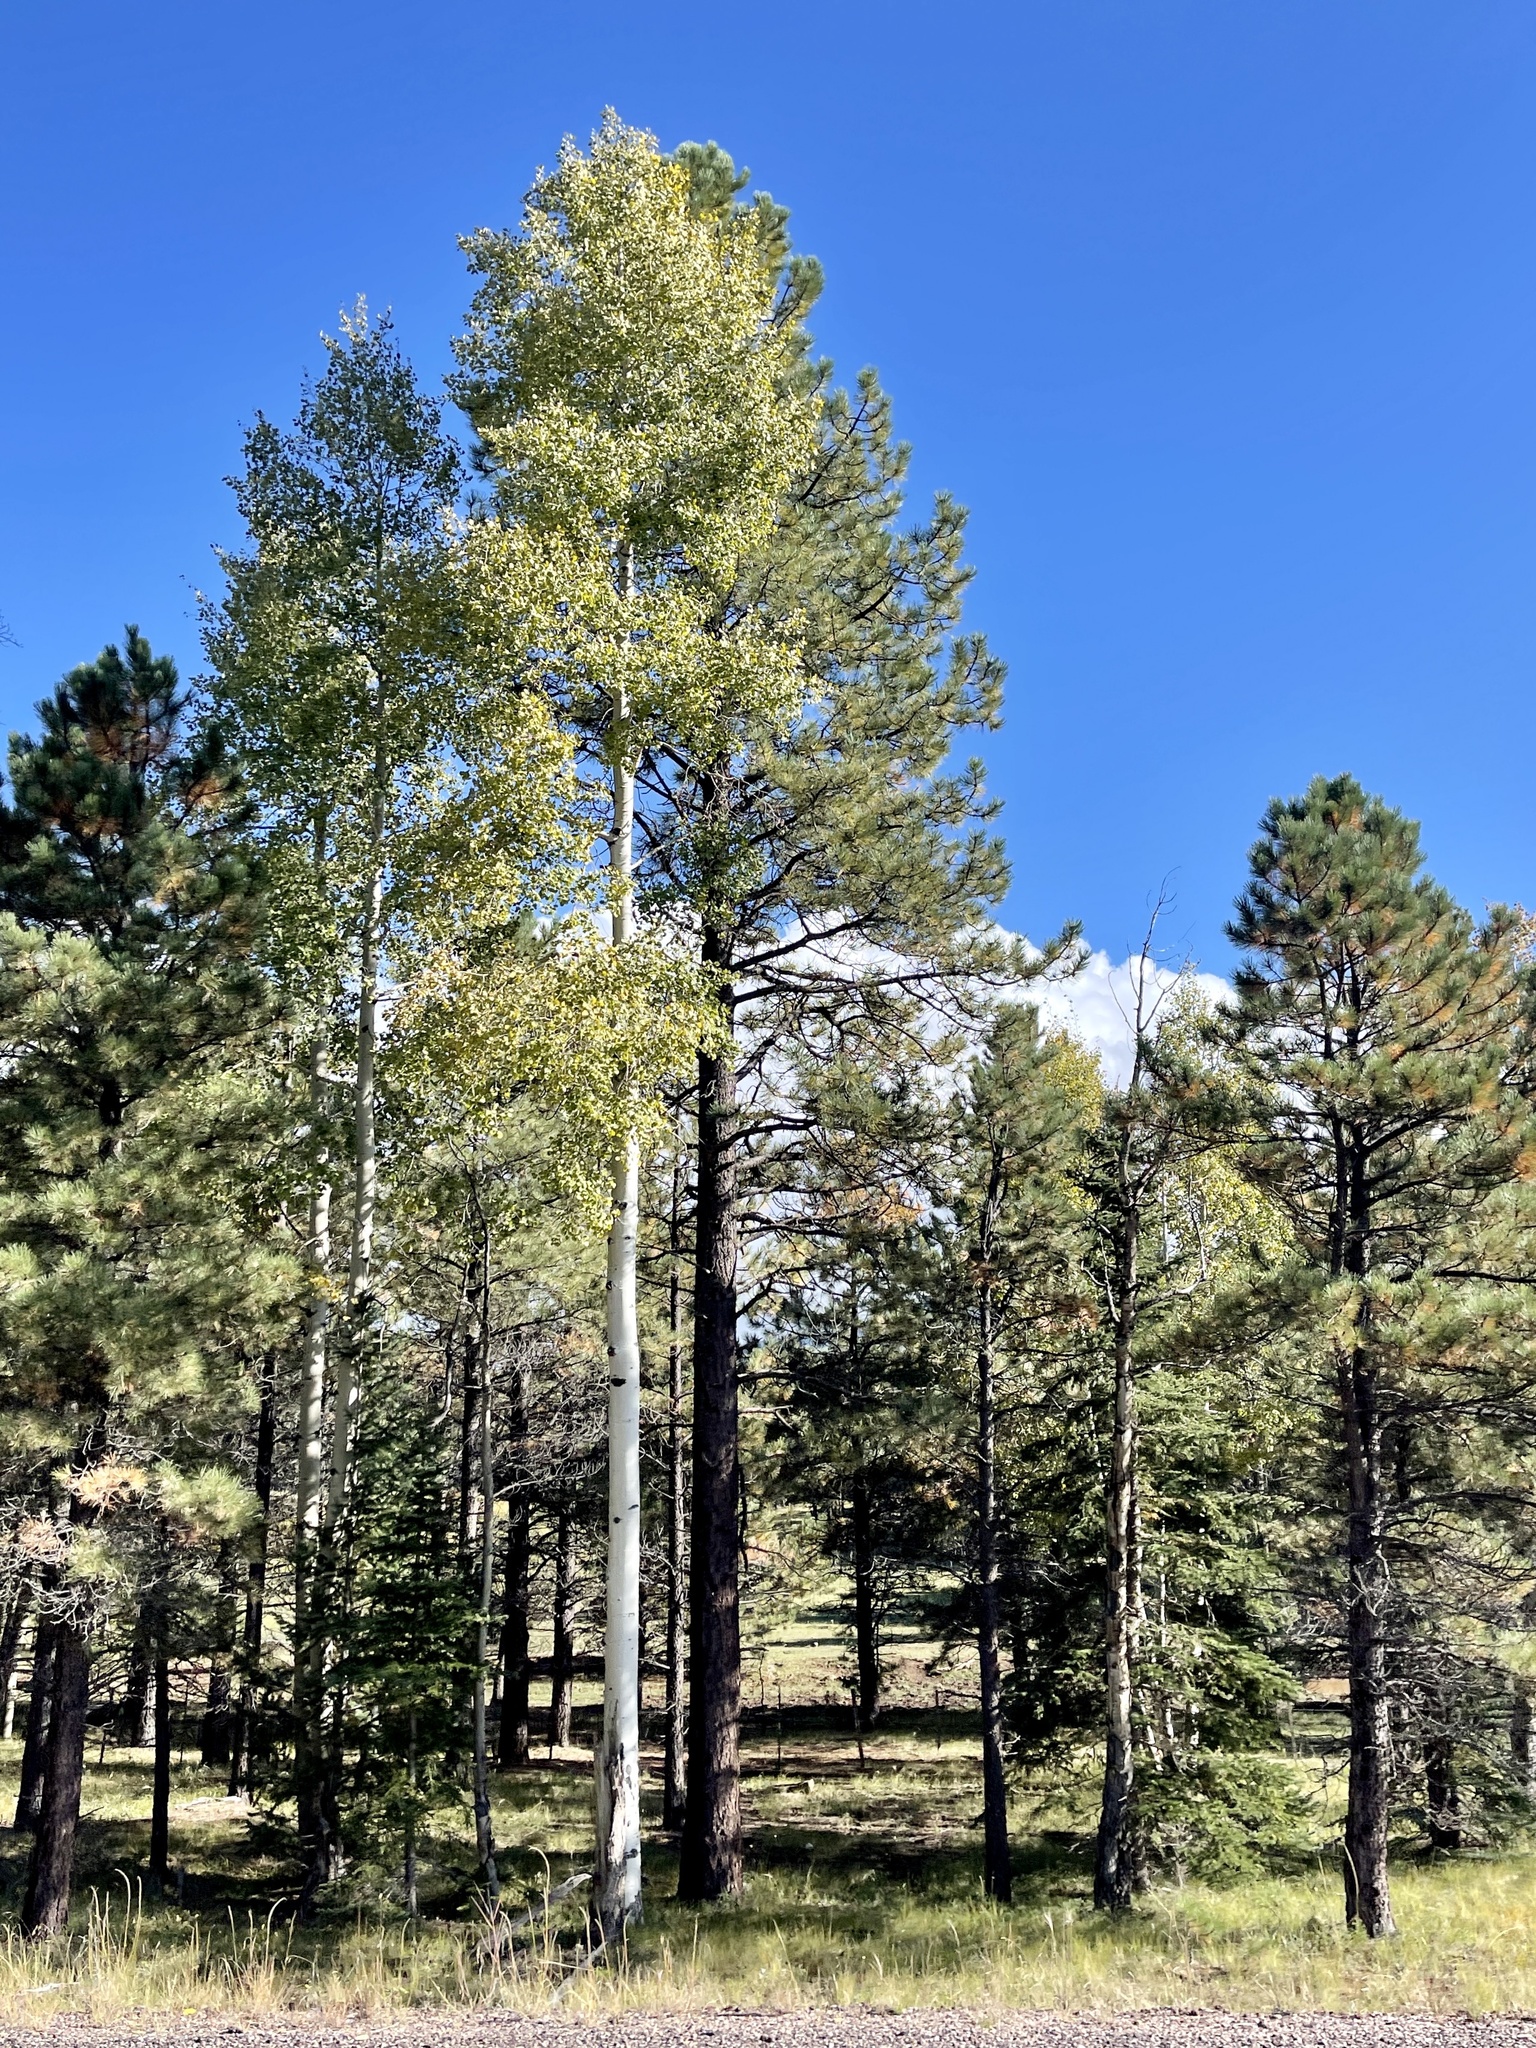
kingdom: Plantae
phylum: Tracheophyta
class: Magnoliopsida
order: Malpighiales
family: Salicaceae
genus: Populus
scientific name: Populus tremuloides
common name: Quaking aspen
